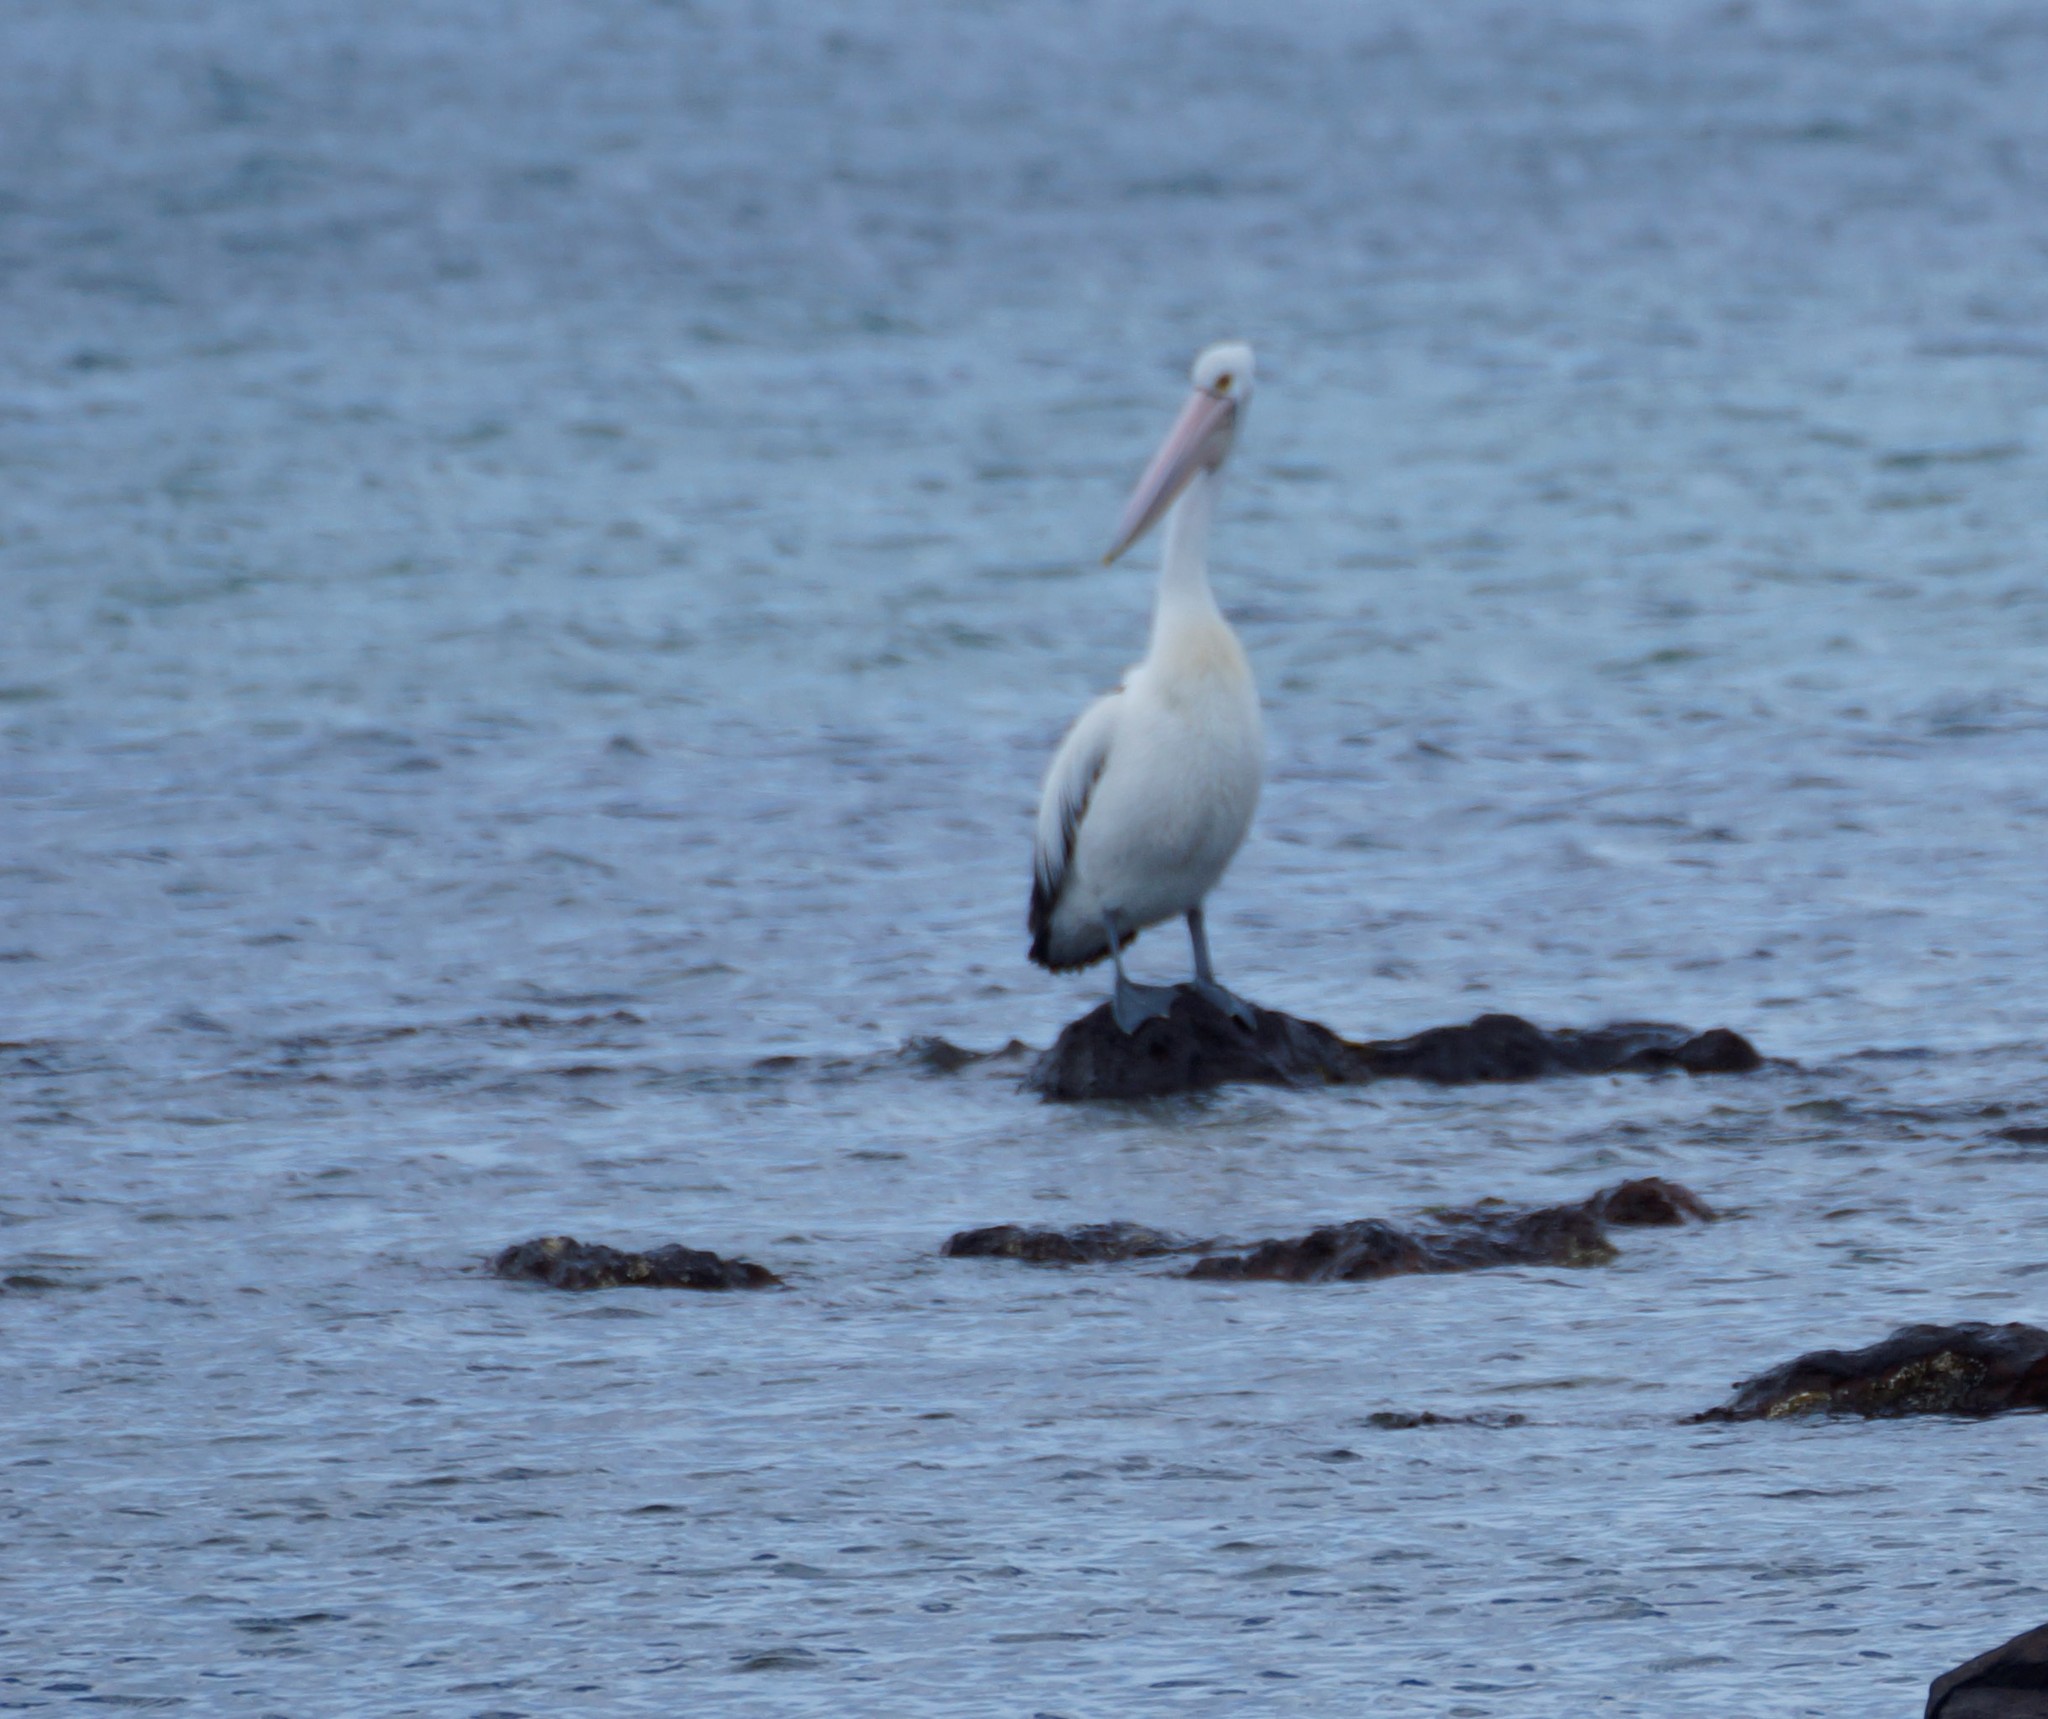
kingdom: Animalia
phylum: Chordata
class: Aves
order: Pelecaniformes
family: Pelecanidae
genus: Pelecanus
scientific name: Pelecanus conspicillatus
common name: Australian pelican
